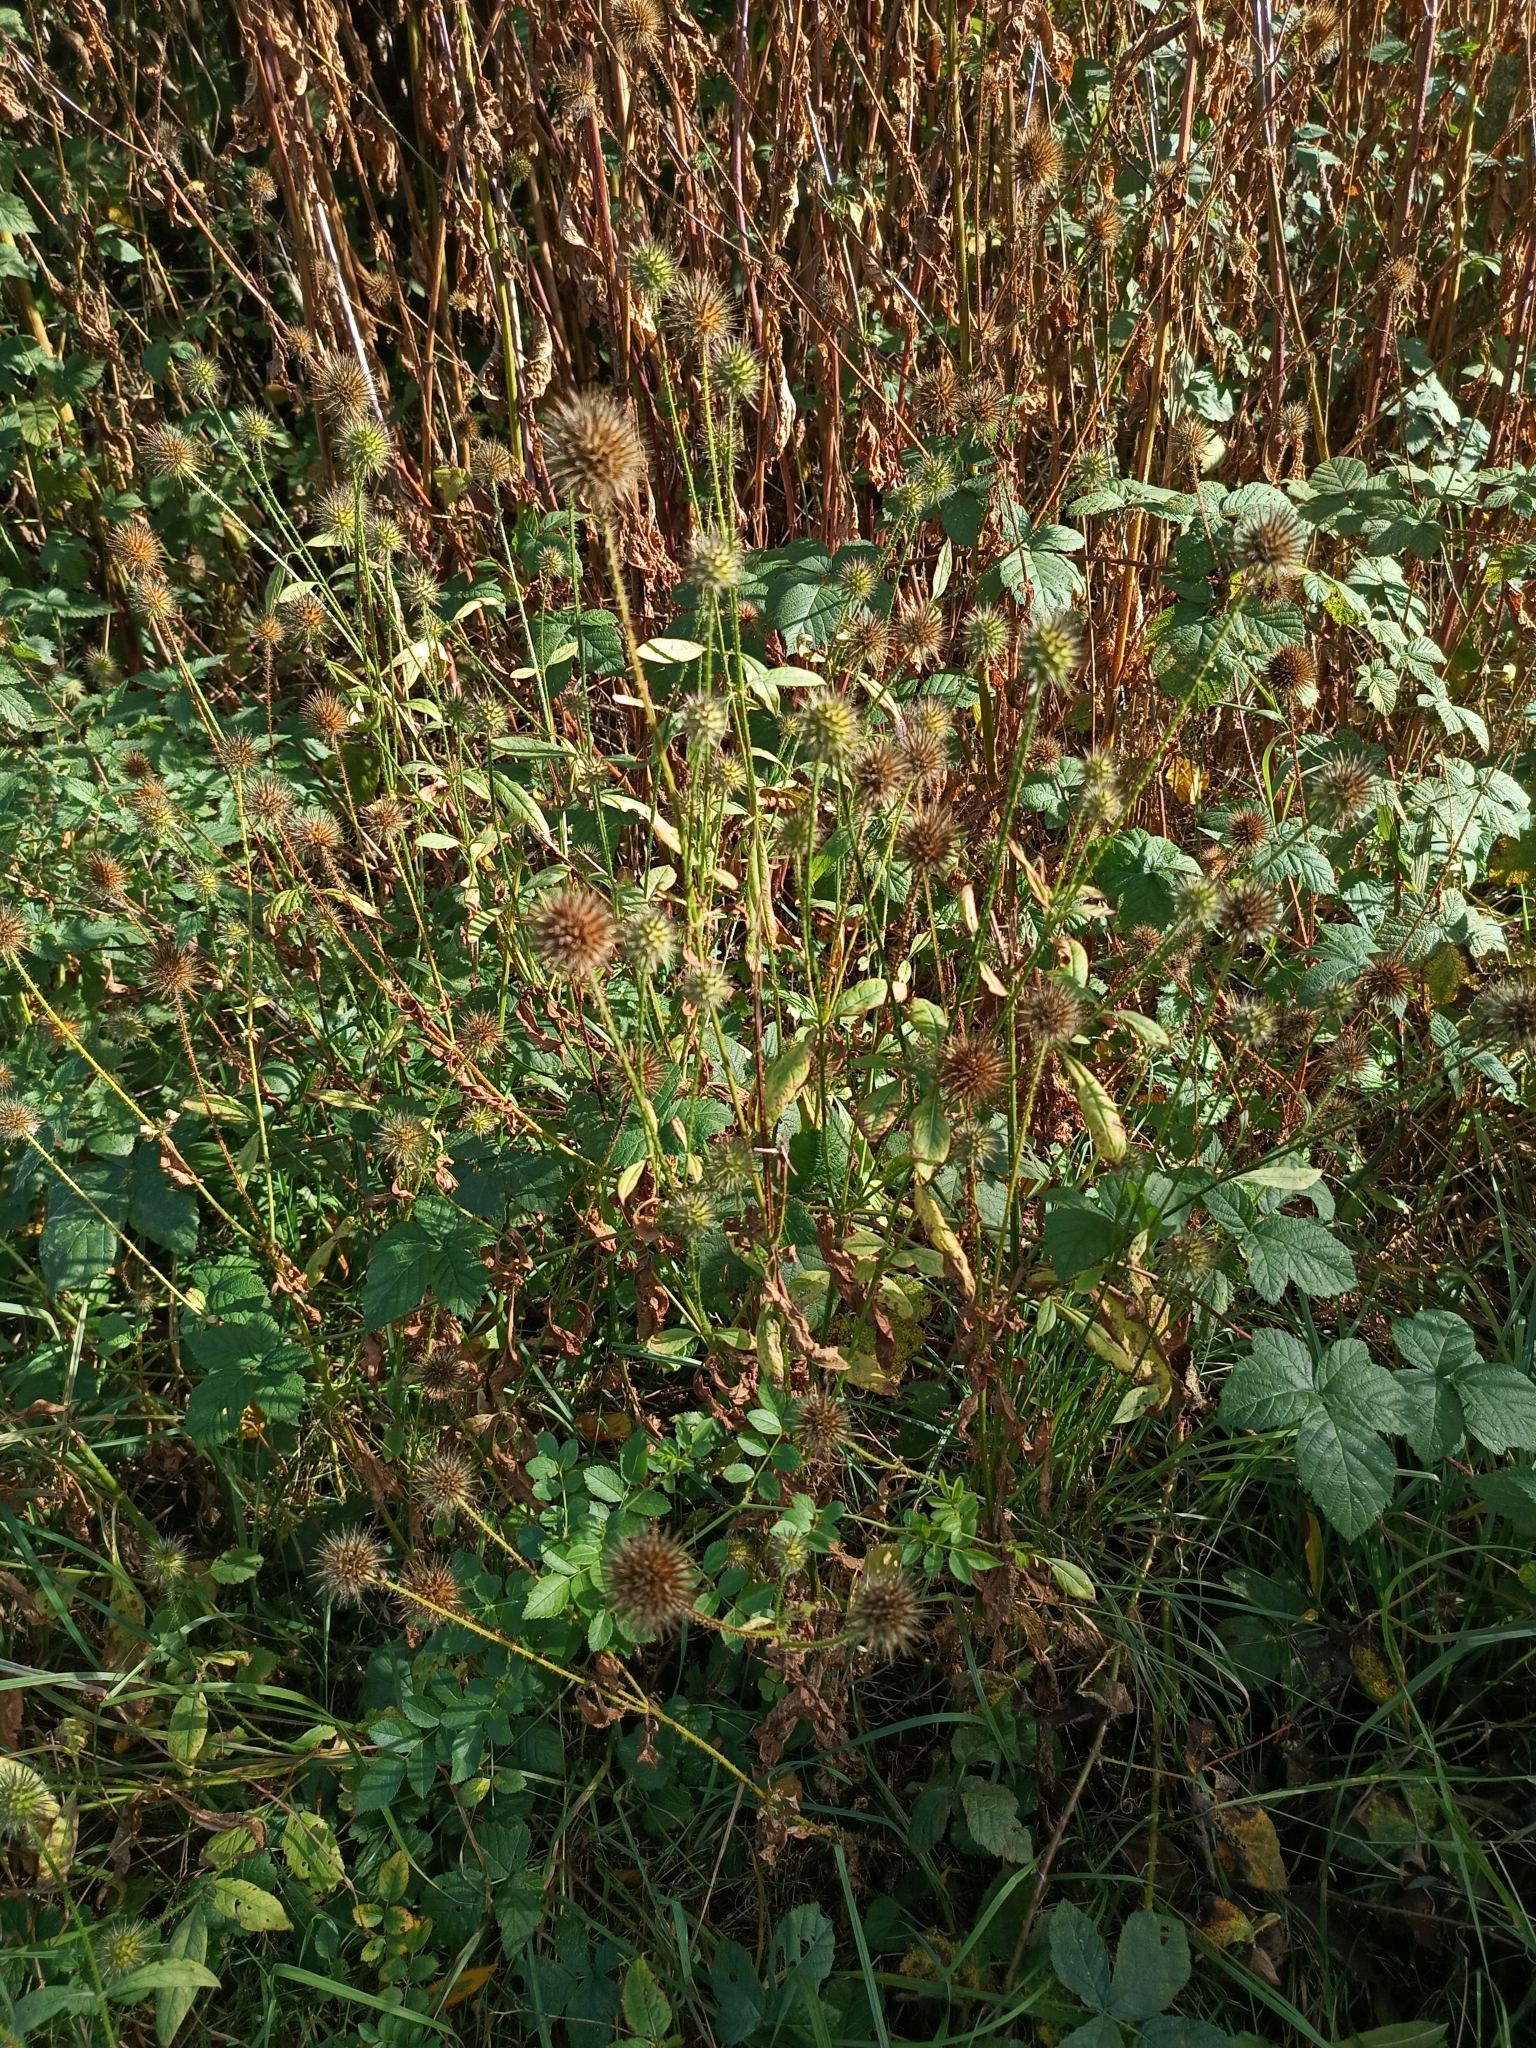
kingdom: Plantae
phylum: Tracheophyta
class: Magnoliopsida
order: Dipsacales
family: Caprifoliaceae
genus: Dipsacus
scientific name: Dipsacus strigosus
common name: Yellow-flowered teasel
